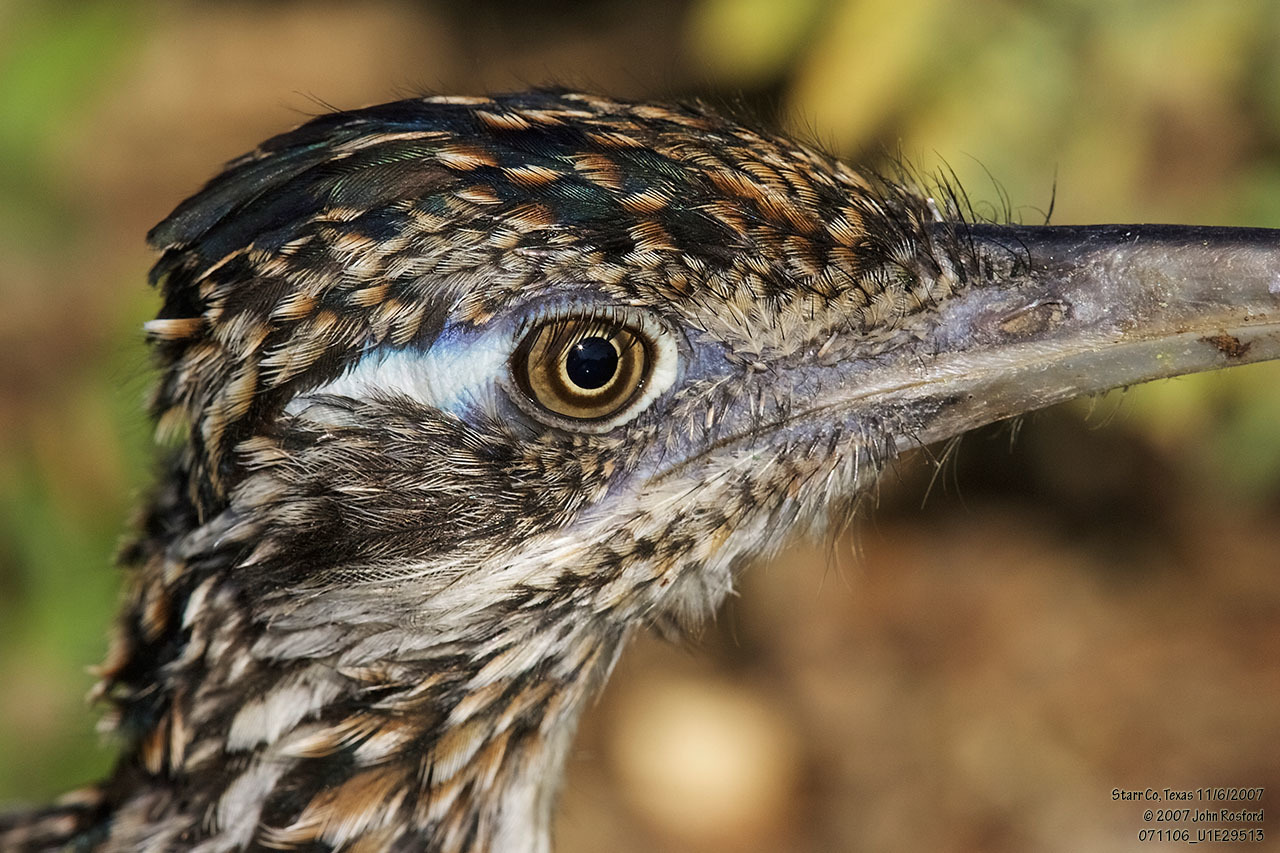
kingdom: Animalia
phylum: Chordata
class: Aves
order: Cuculiformes
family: Cuculidae
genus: Geococcyx
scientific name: Geococcyx californianus
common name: Greater roadrunner
